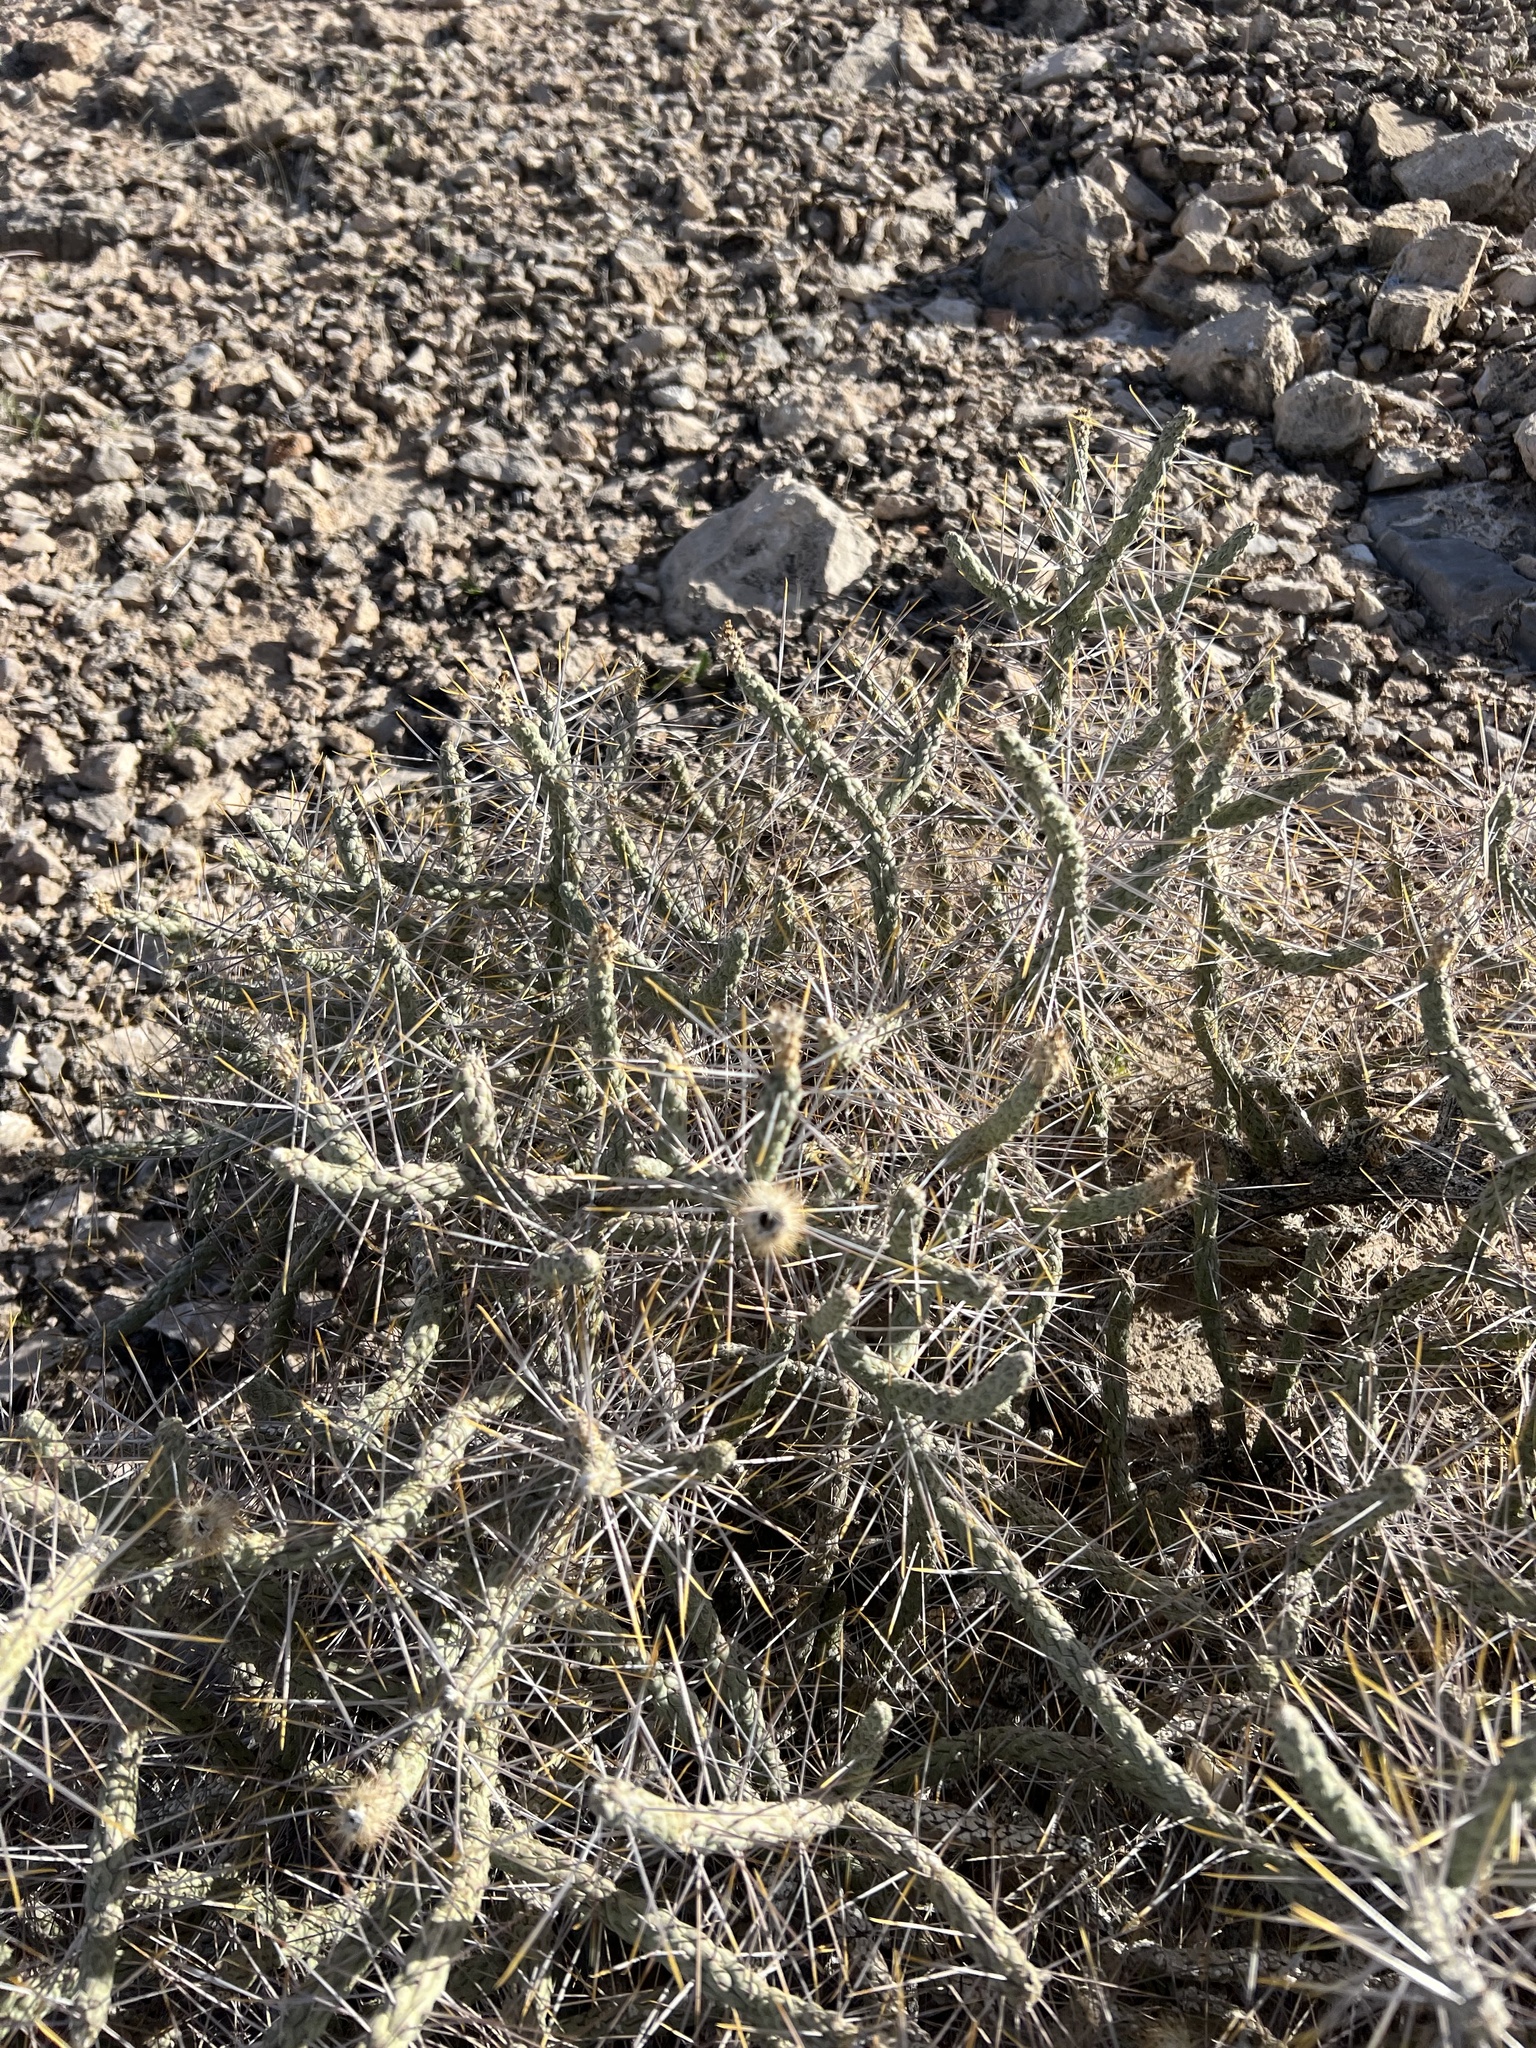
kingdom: Plantae
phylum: Tracheophyta
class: Magnoliopsida
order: Caryophyllales
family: Cactaceae
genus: Cylindropuntia
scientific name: Cylindropuntia ramosissima
